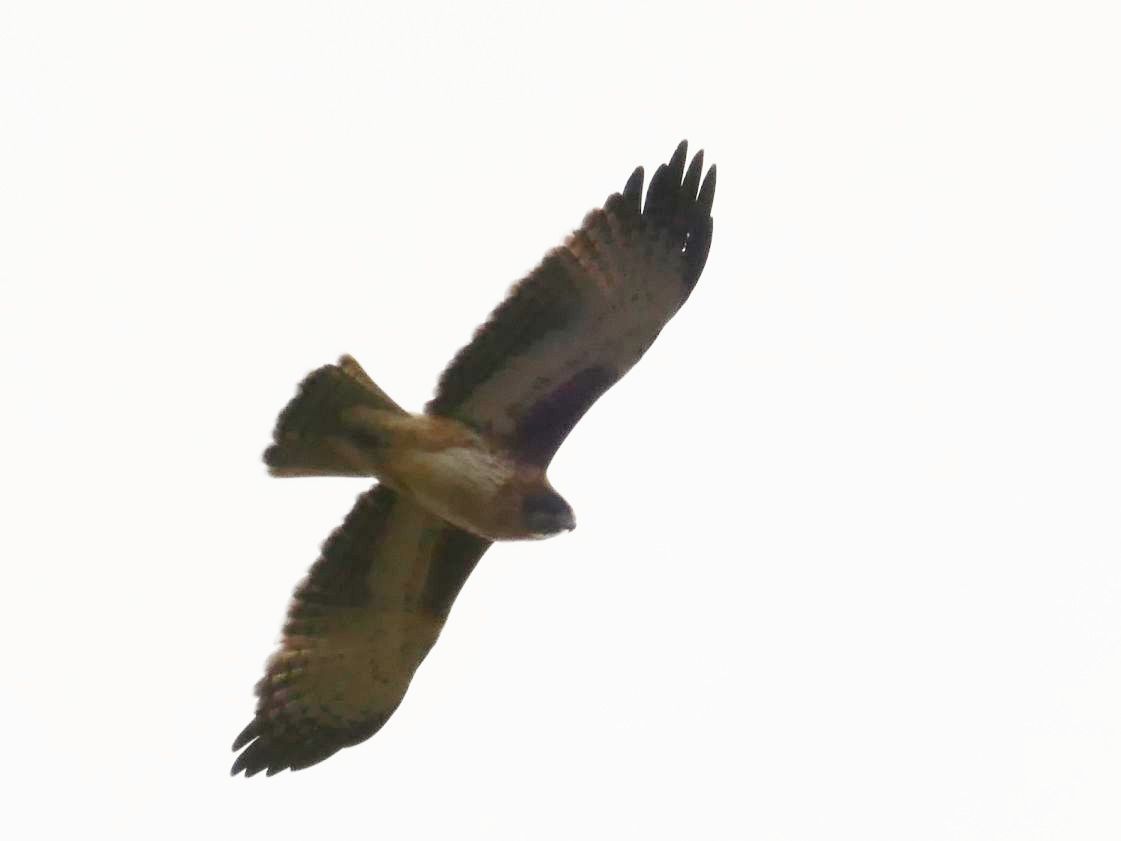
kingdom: Animalia
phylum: Chordata
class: Aves
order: Accipitriformes
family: Accipitridae
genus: Hieraaetus
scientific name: Hieraaetus morphnoides
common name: Little eagle
